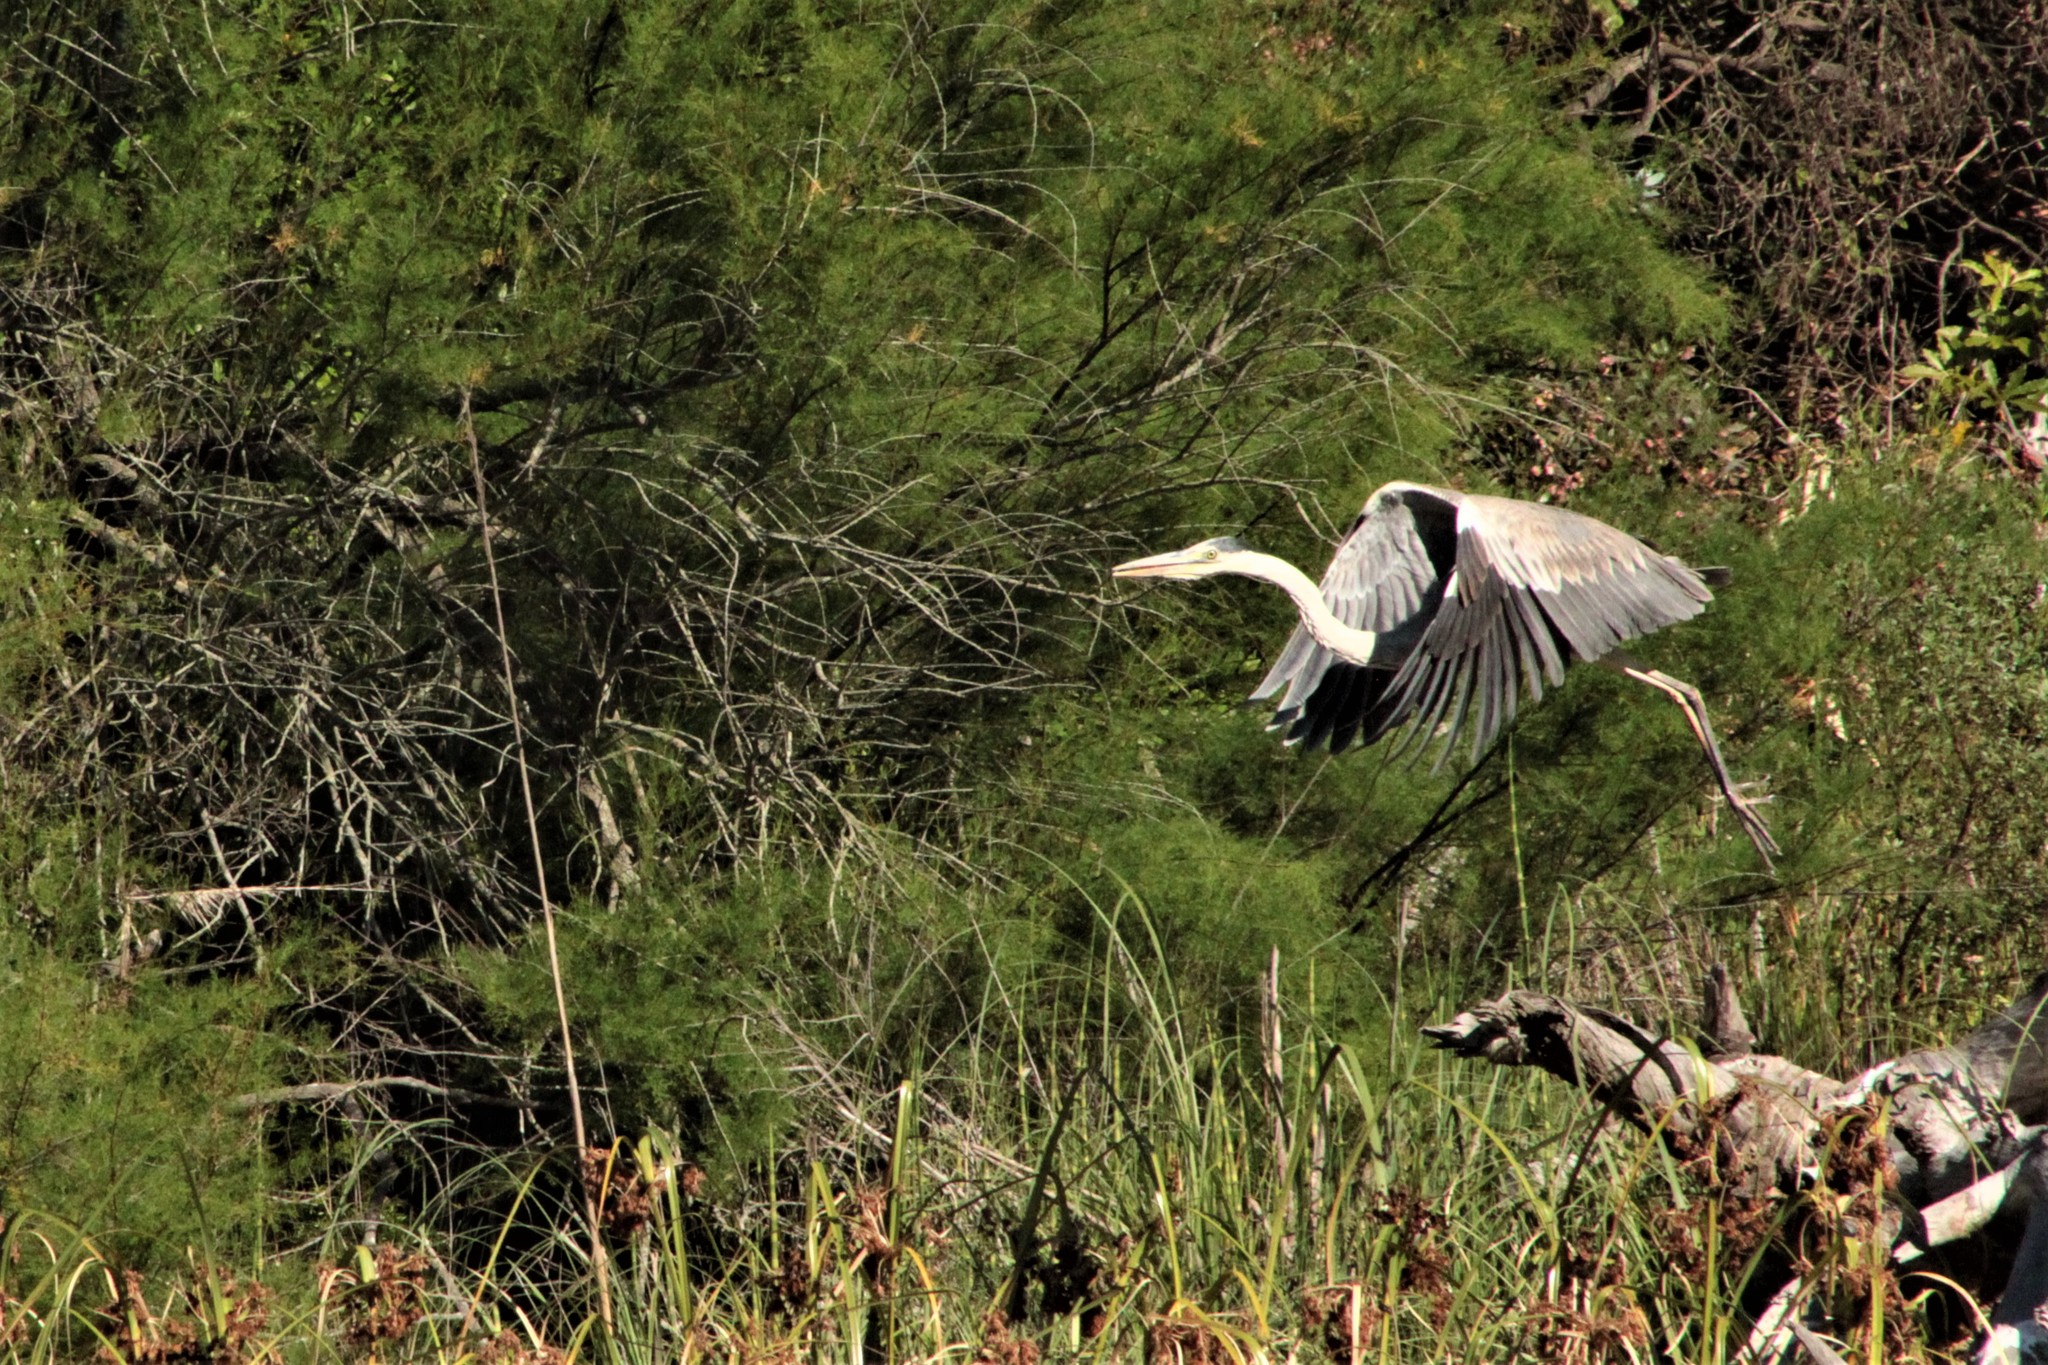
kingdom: Animalia
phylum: Chordata
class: Aves
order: Pelecaniformes
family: Ardeidae
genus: Ardea
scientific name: Ardea cocoi
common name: Cocoi heron
